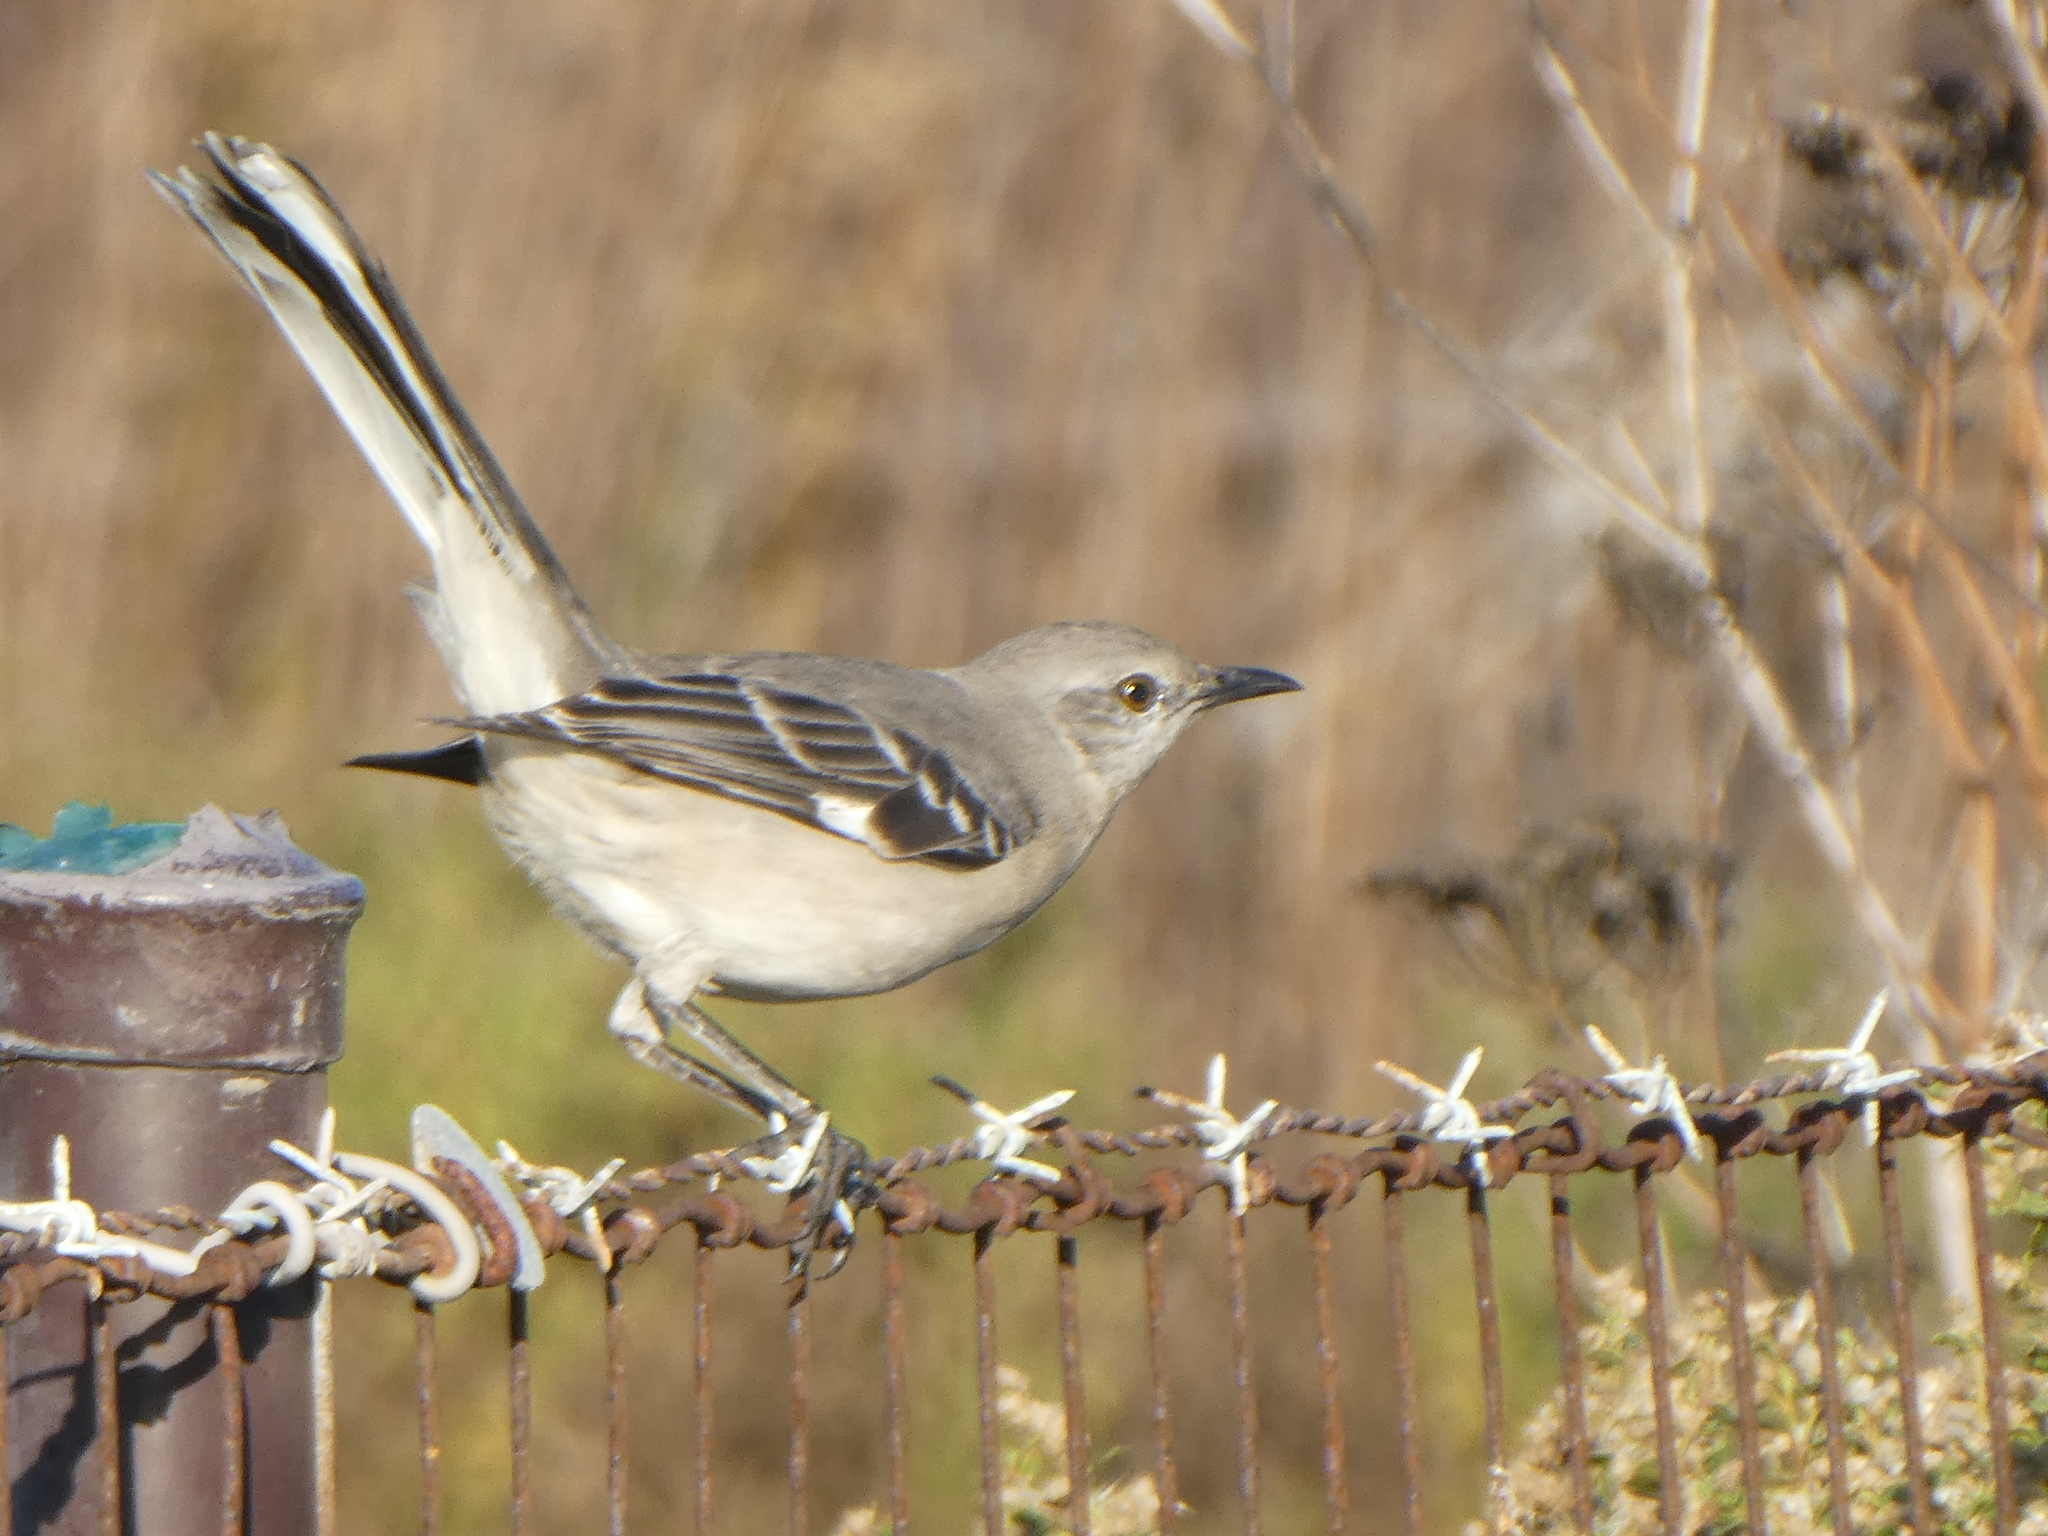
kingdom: Animalia
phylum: Chordata
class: Aves
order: Passeriformes
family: Mimidae
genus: Mimus
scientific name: Mimus polyglottos
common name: Northern mockingbird
